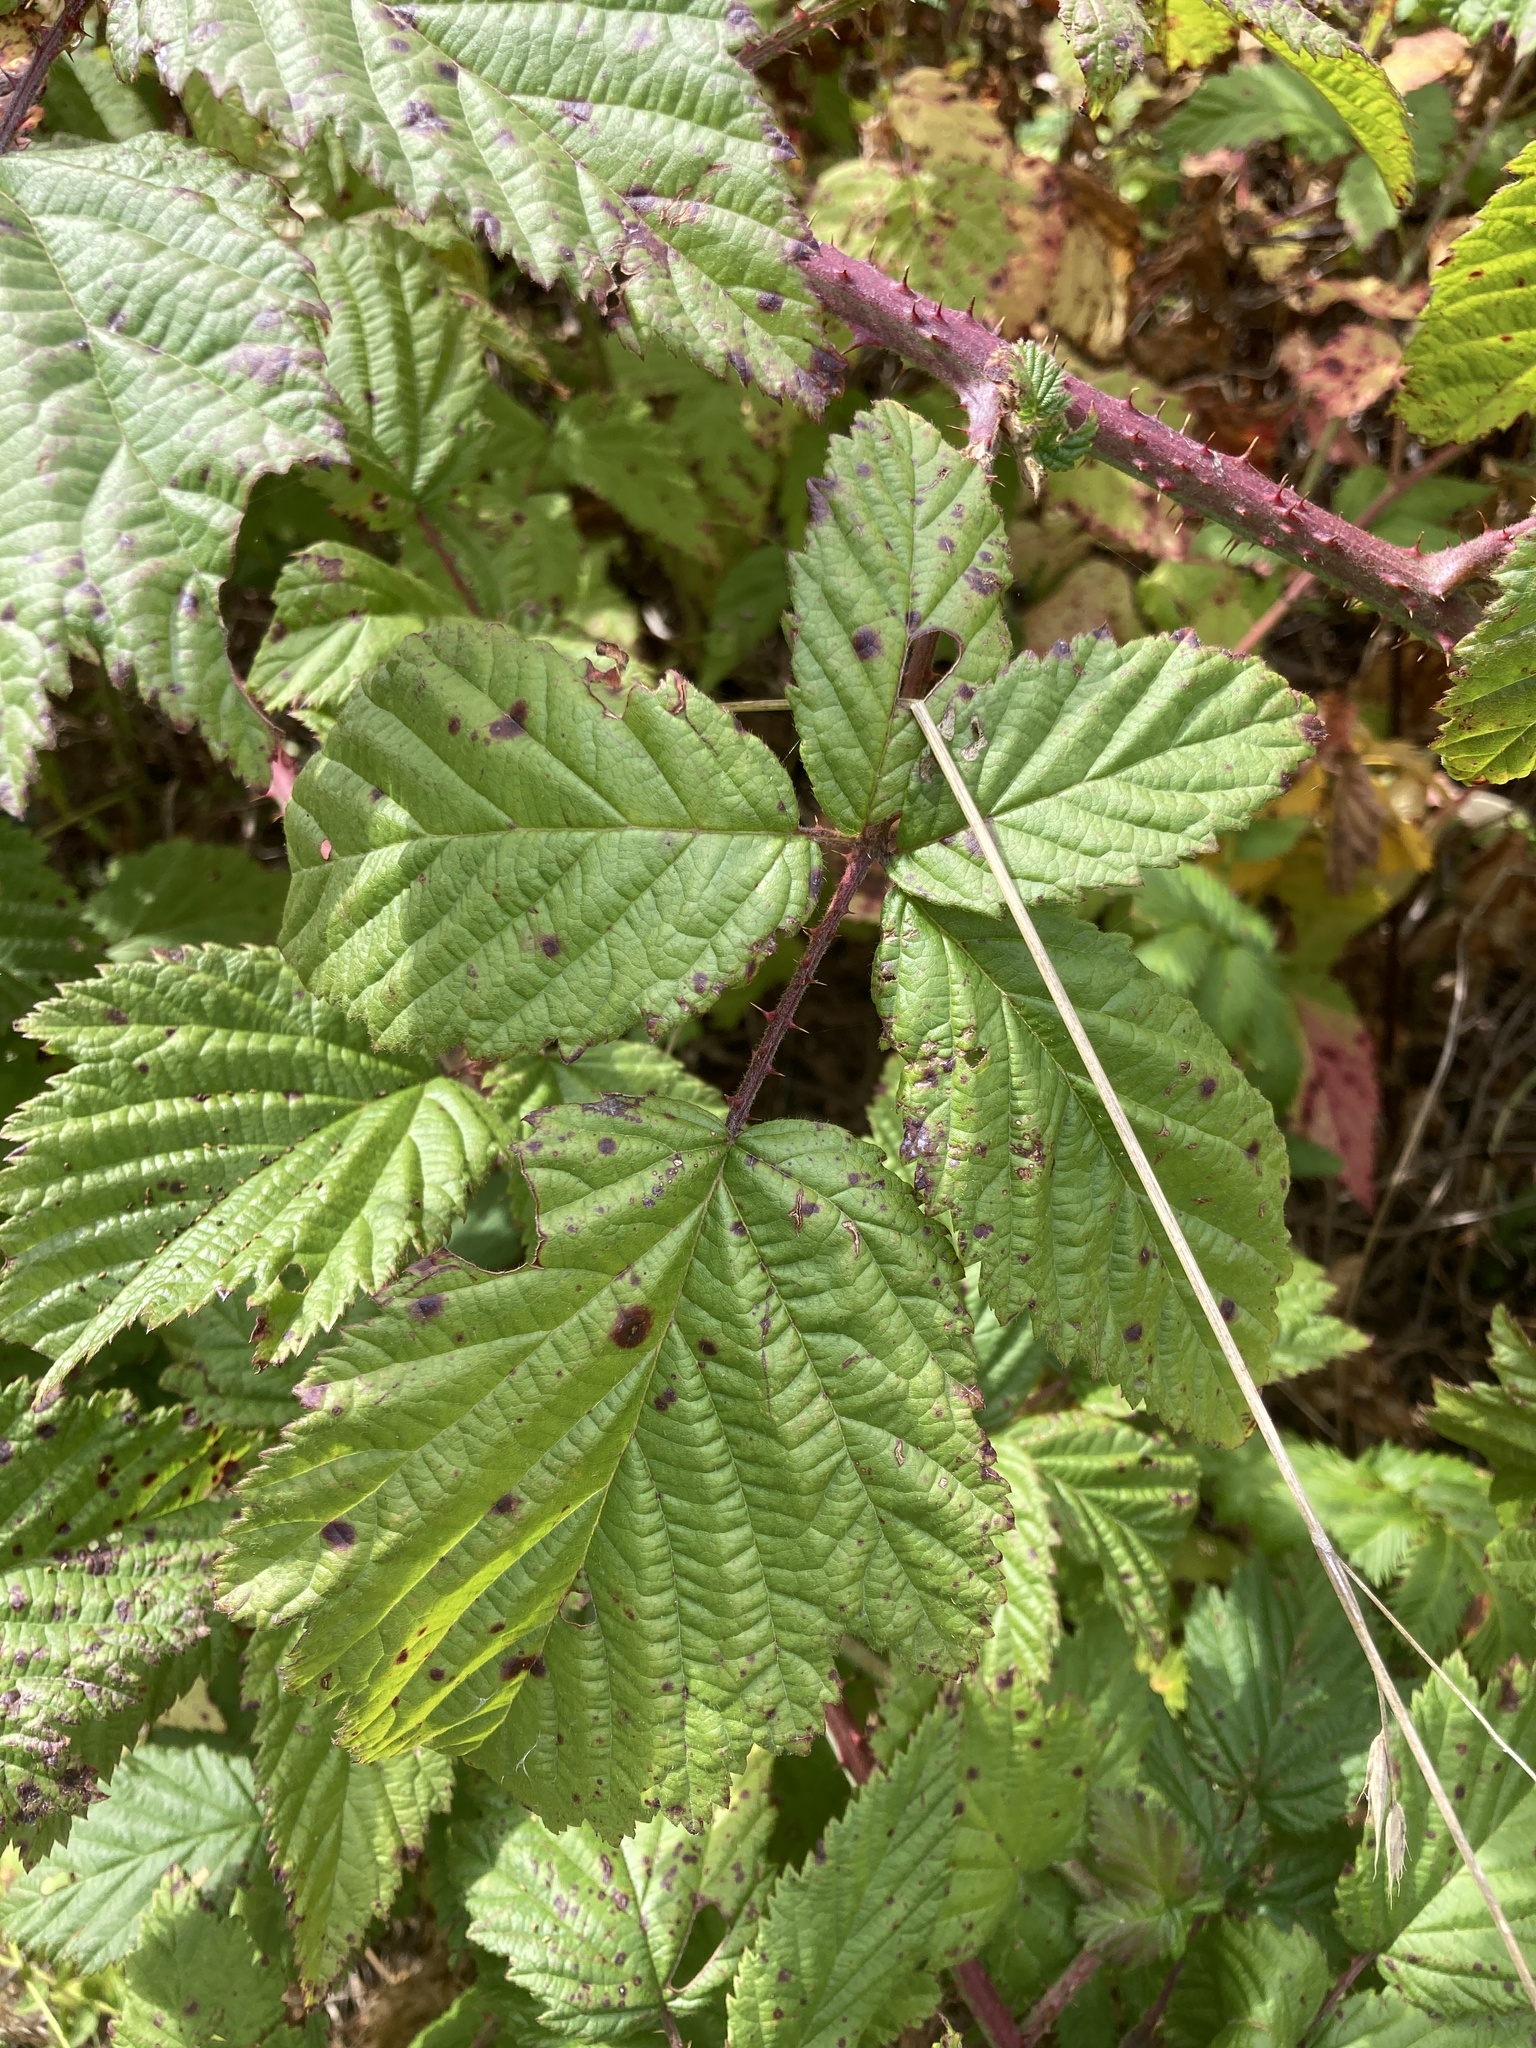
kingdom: Plantae
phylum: Tracheophyta
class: Magnoliopsida
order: Rosales
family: Rosaceae
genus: Rubus
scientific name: Rubus armeniacus
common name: Himalayan blackberry
